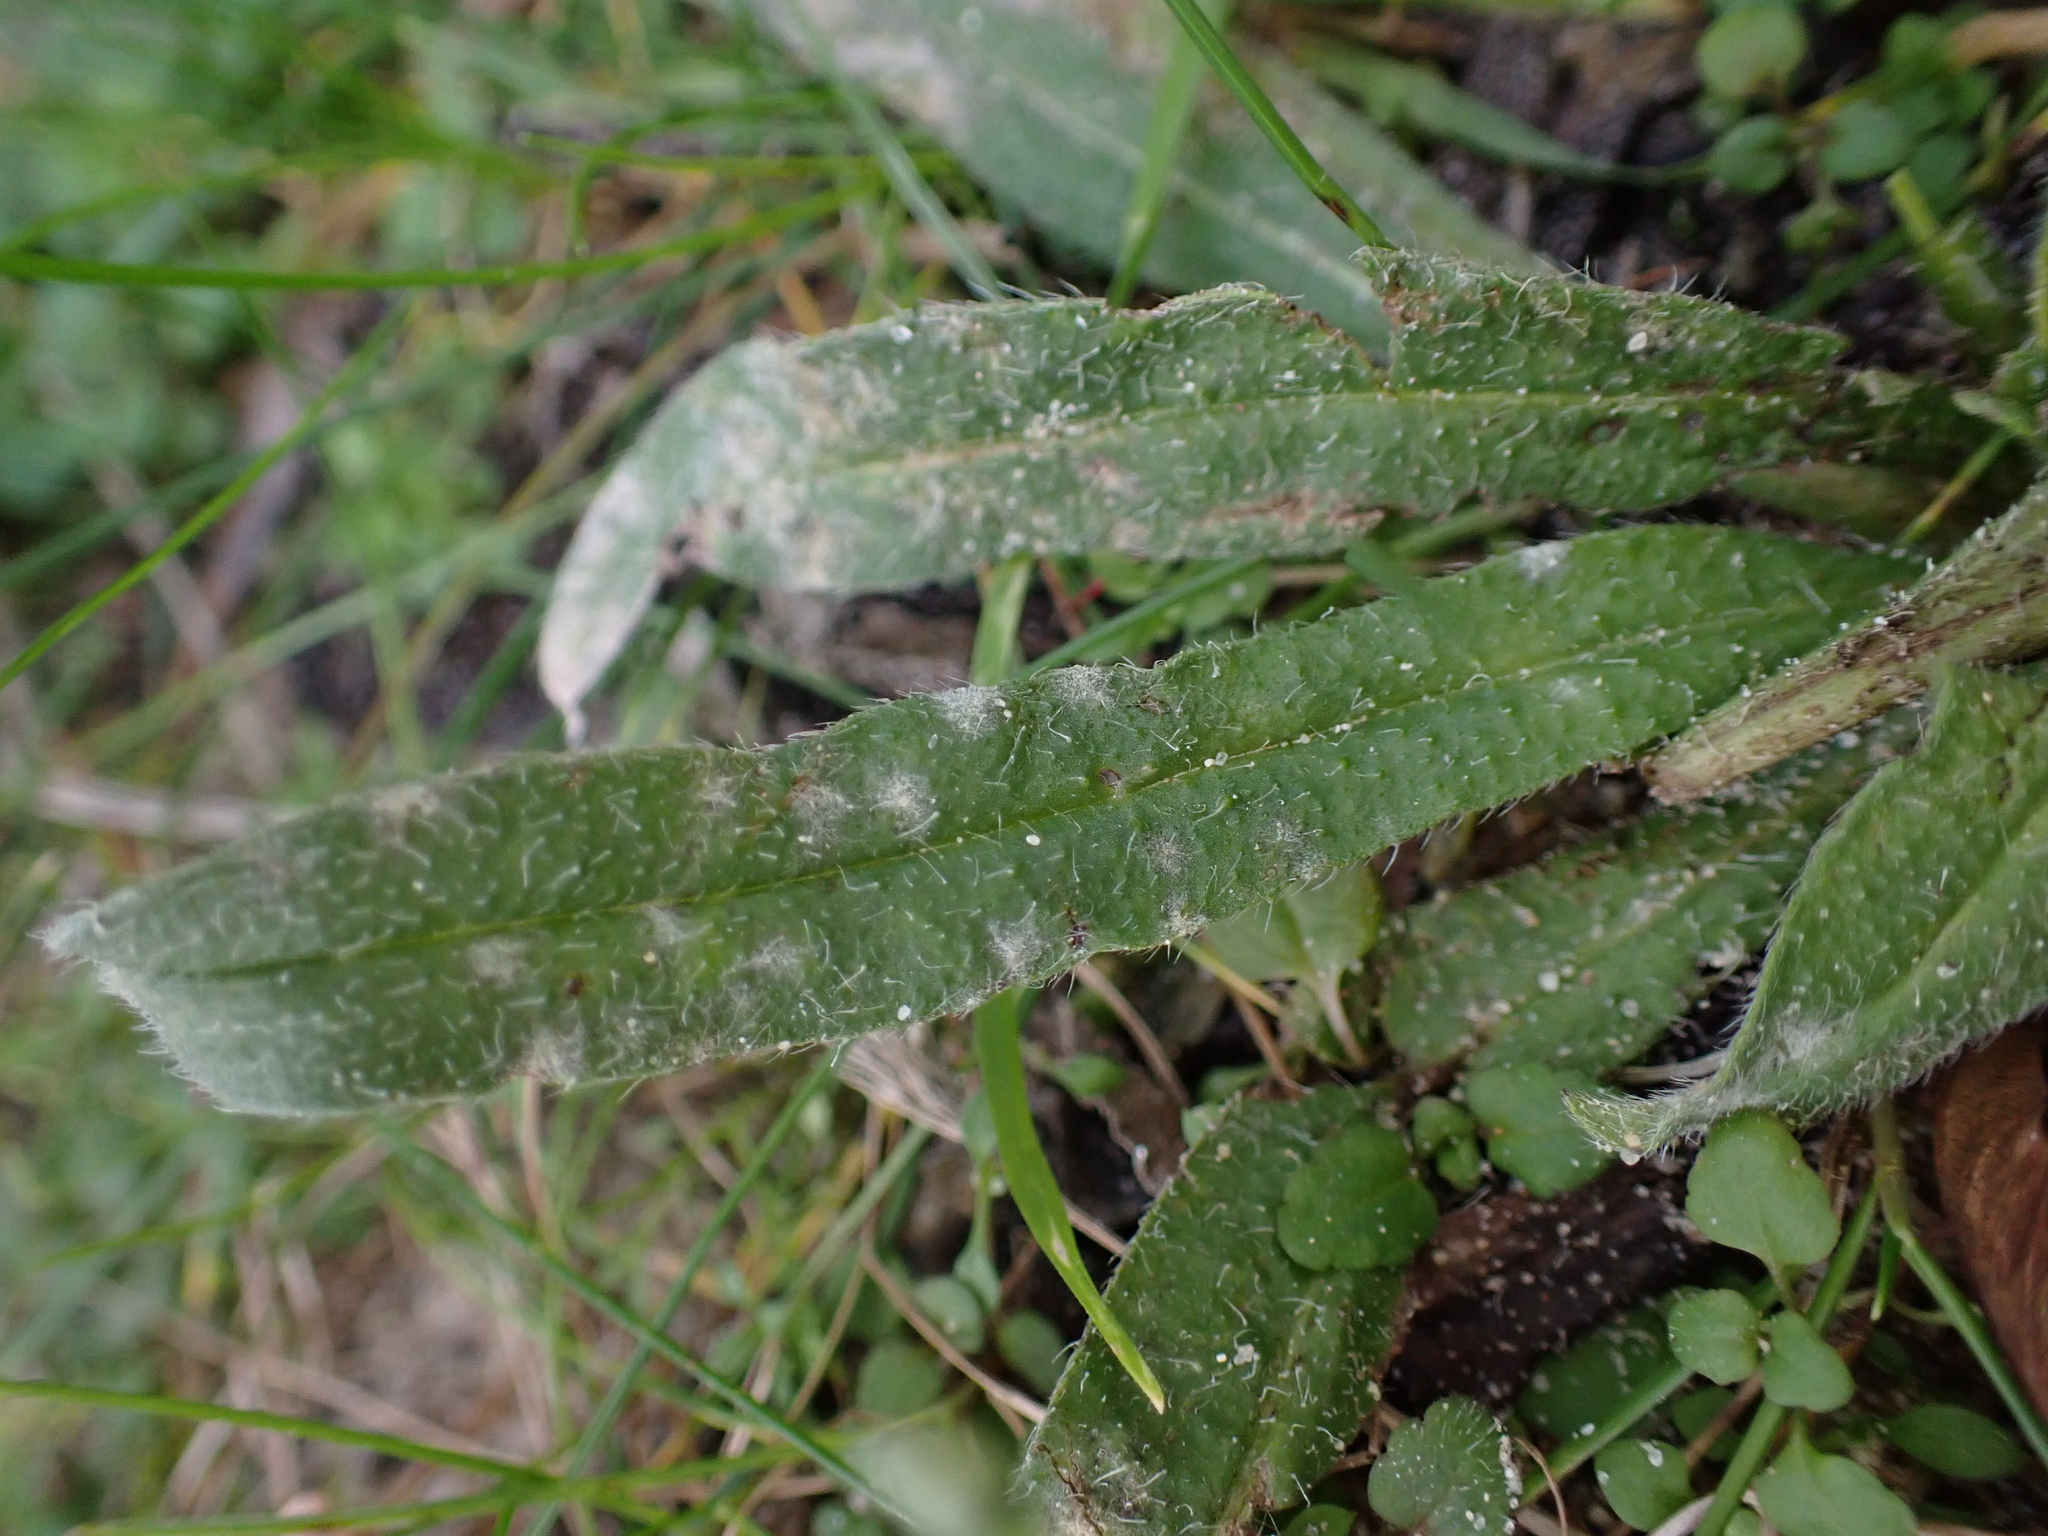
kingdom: Fungi
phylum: Ascomycota
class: Leotiomycetes
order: Helotiales
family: Erysiphaceae
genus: Golovinomyces
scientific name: Golovinomyces asperifolii
